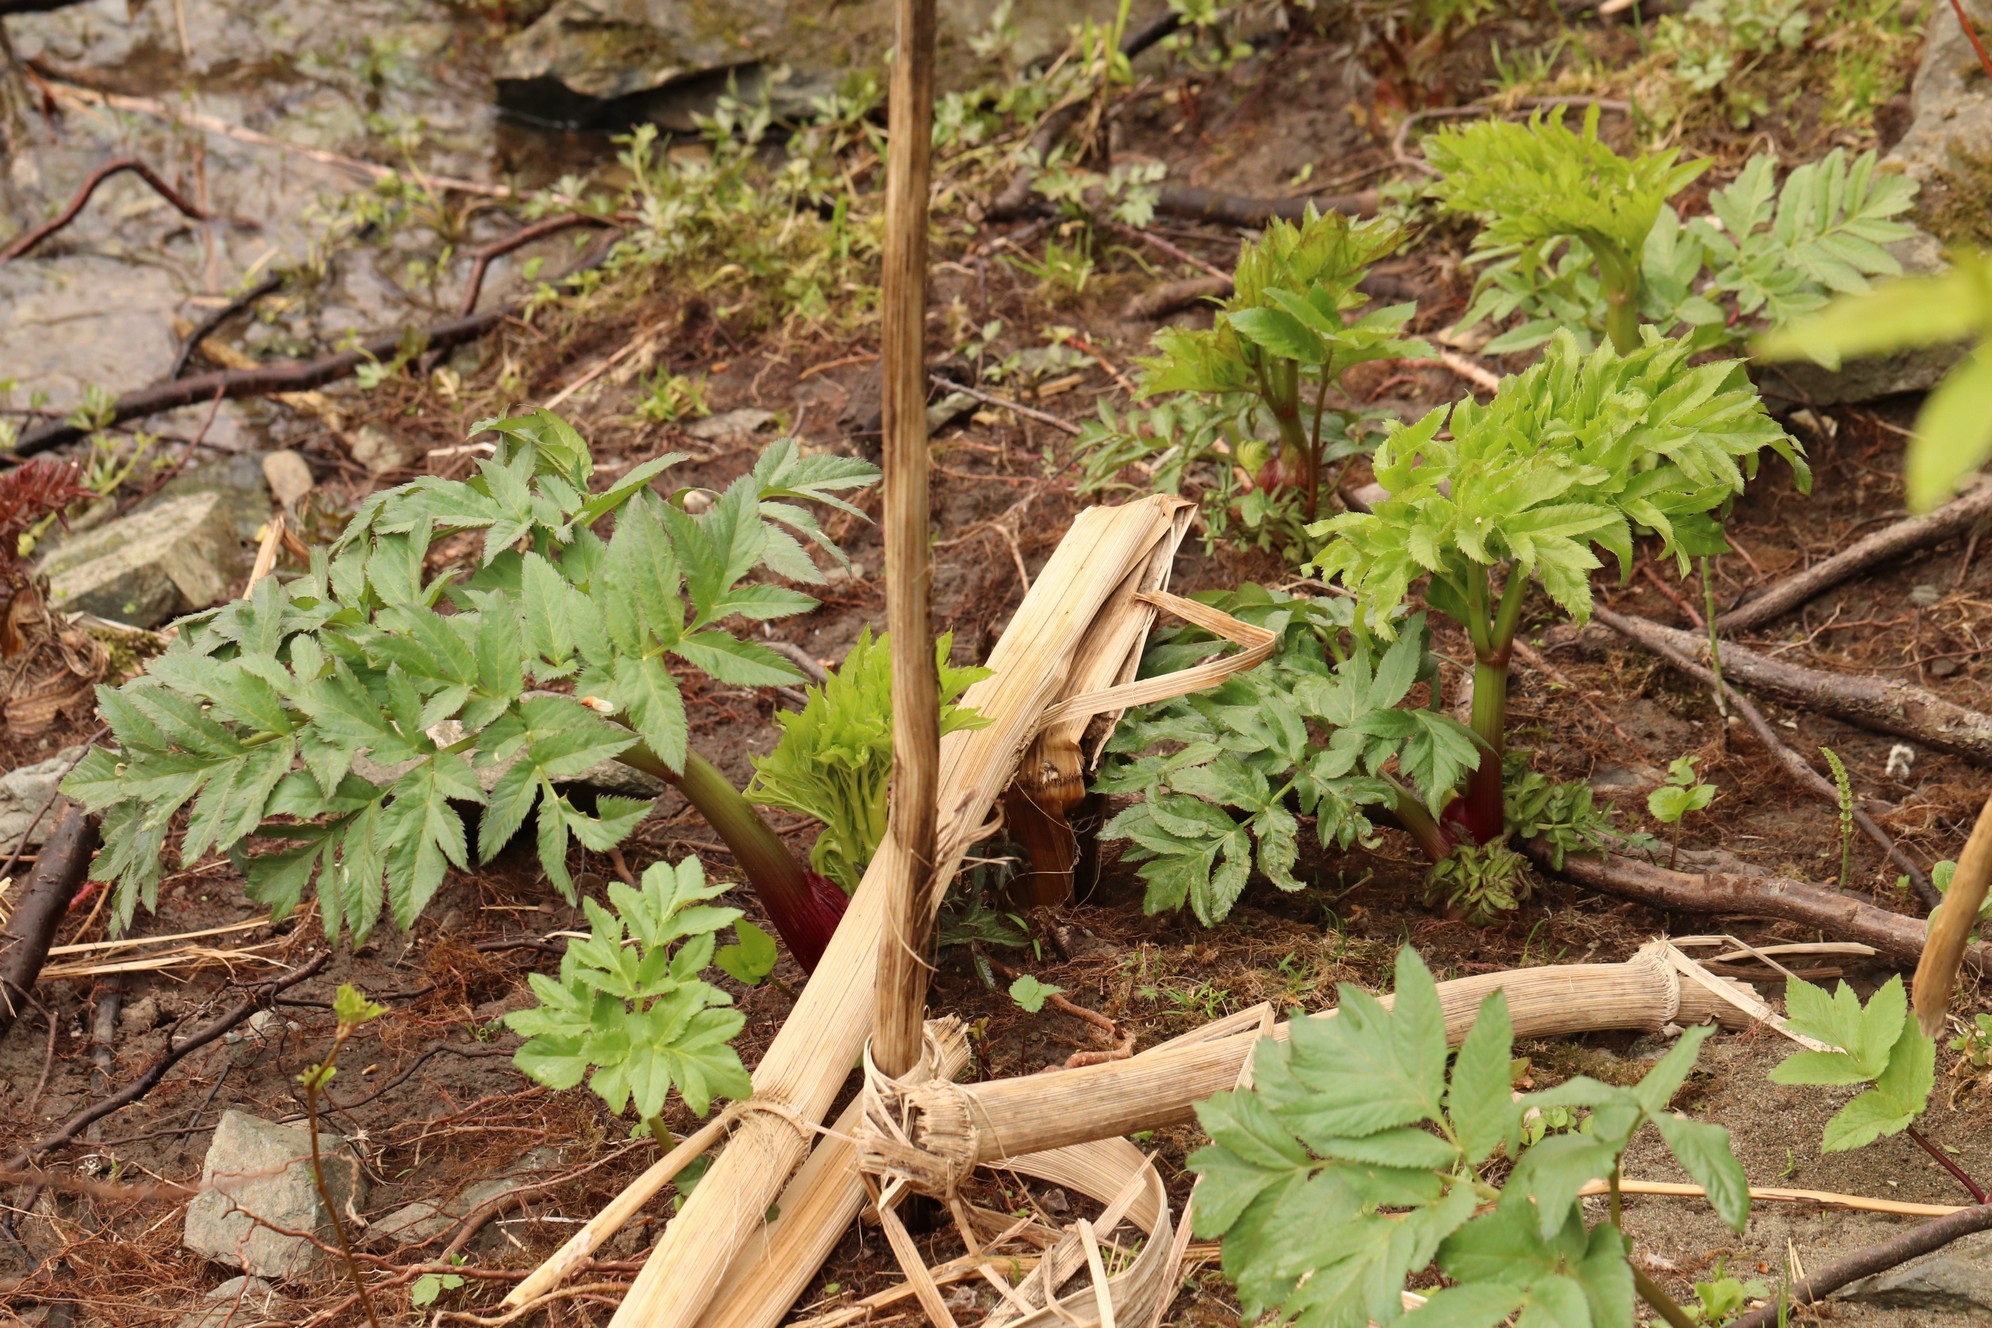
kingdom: Plantae
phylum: Tracheophyta
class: Magnoliopsida
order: Apiales
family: Apiaceae
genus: Angelica
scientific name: Angelica decurrens
